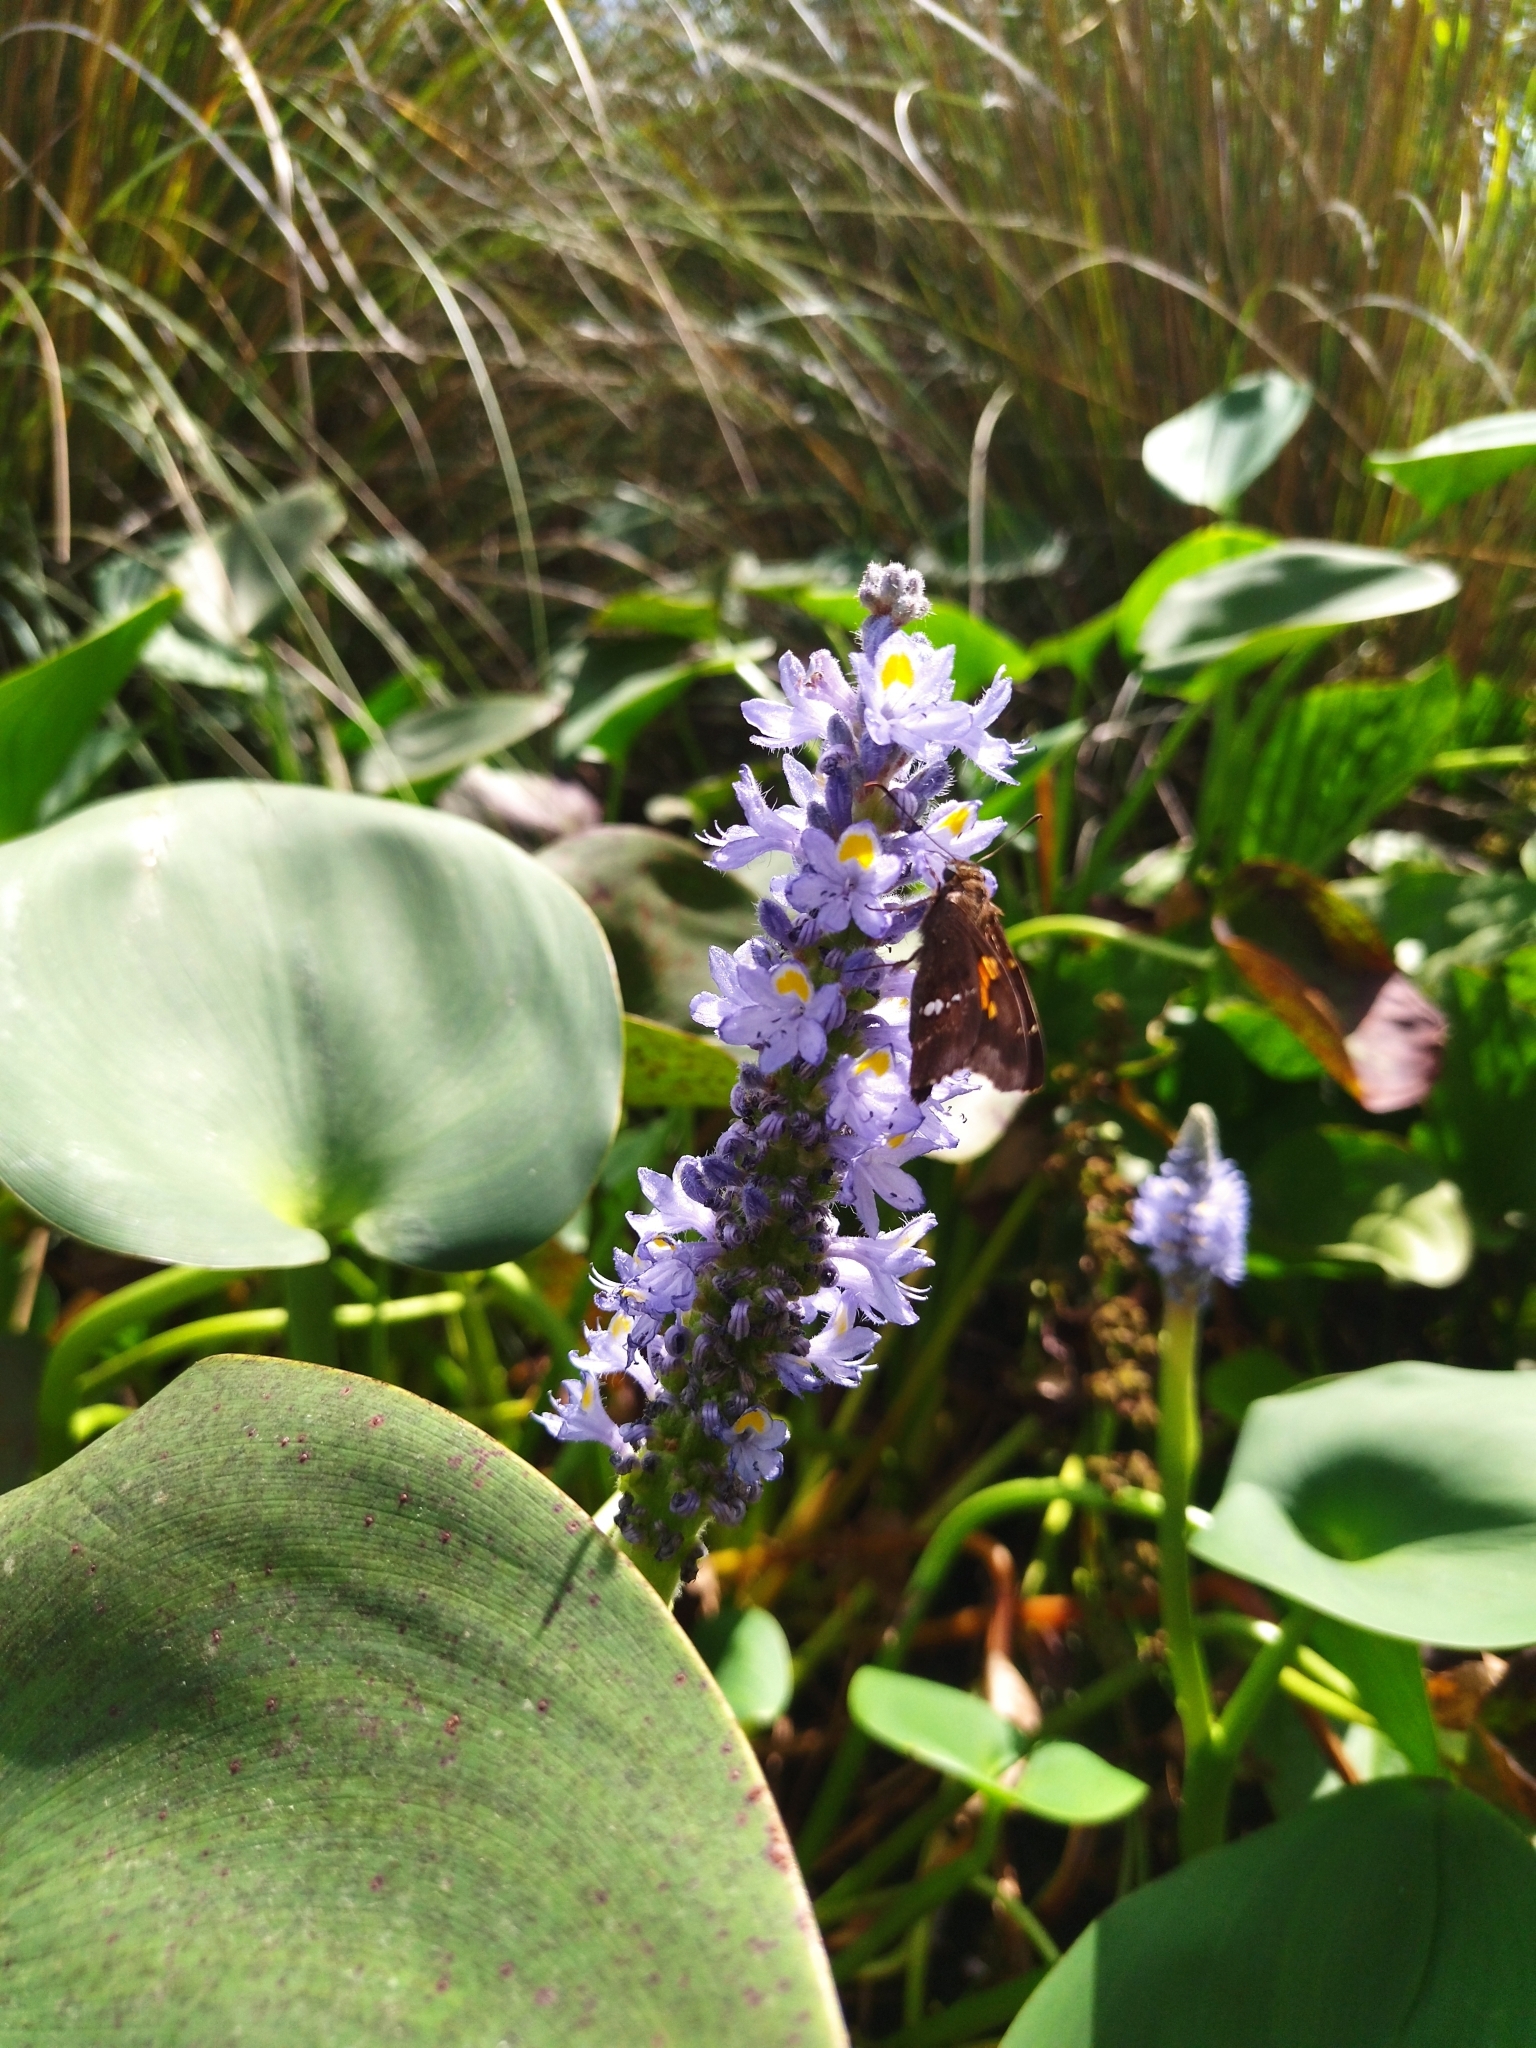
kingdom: Plantae
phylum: Tracheophyta
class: Liliopsida
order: Commelinales
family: Pontederiaceae
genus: Pontederia
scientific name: Pontederia cordata
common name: Pickerelweed
